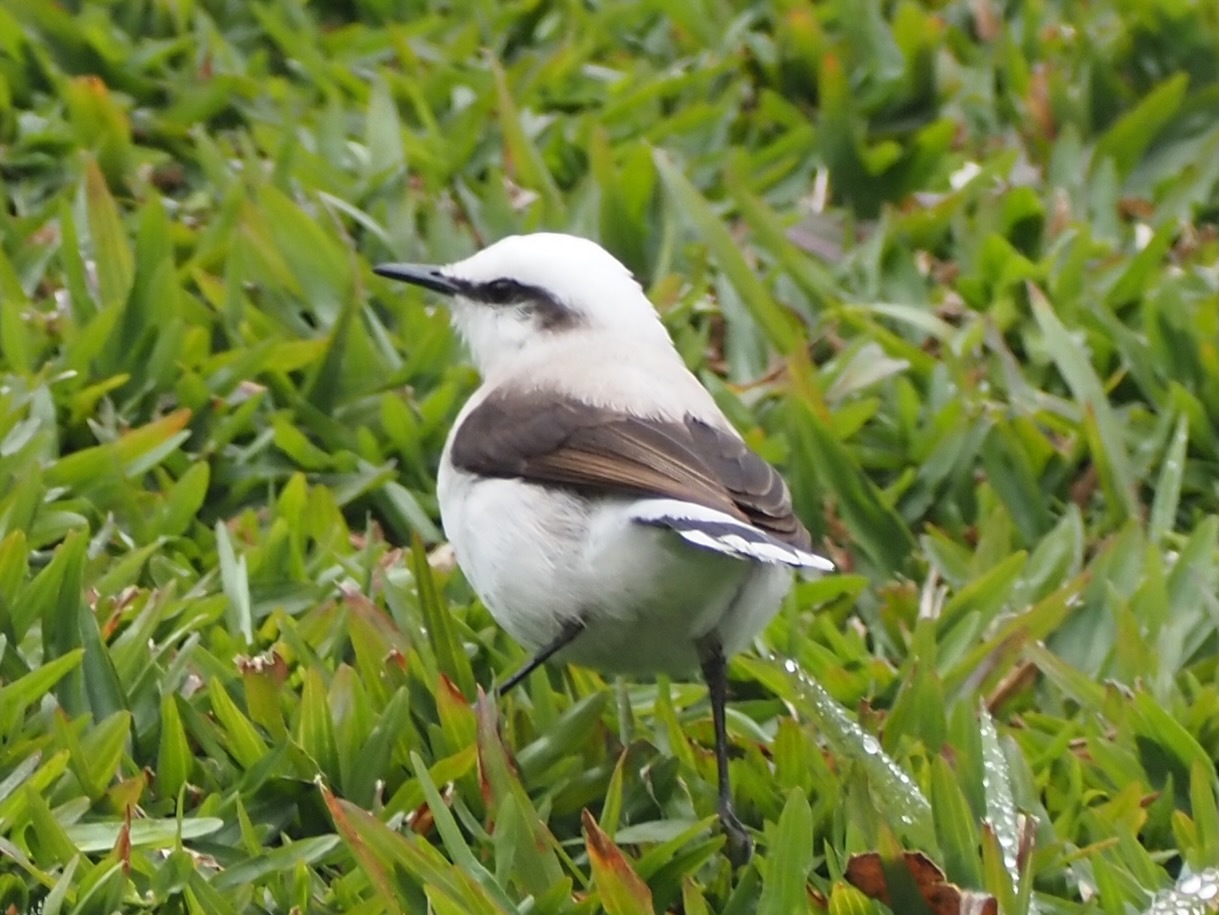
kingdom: Animalia
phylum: Chordata
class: Aves
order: Passeriformes
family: Tyrannidae
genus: Fluvicola
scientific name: Fluvicola nengeta
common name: Masked water tyrant
